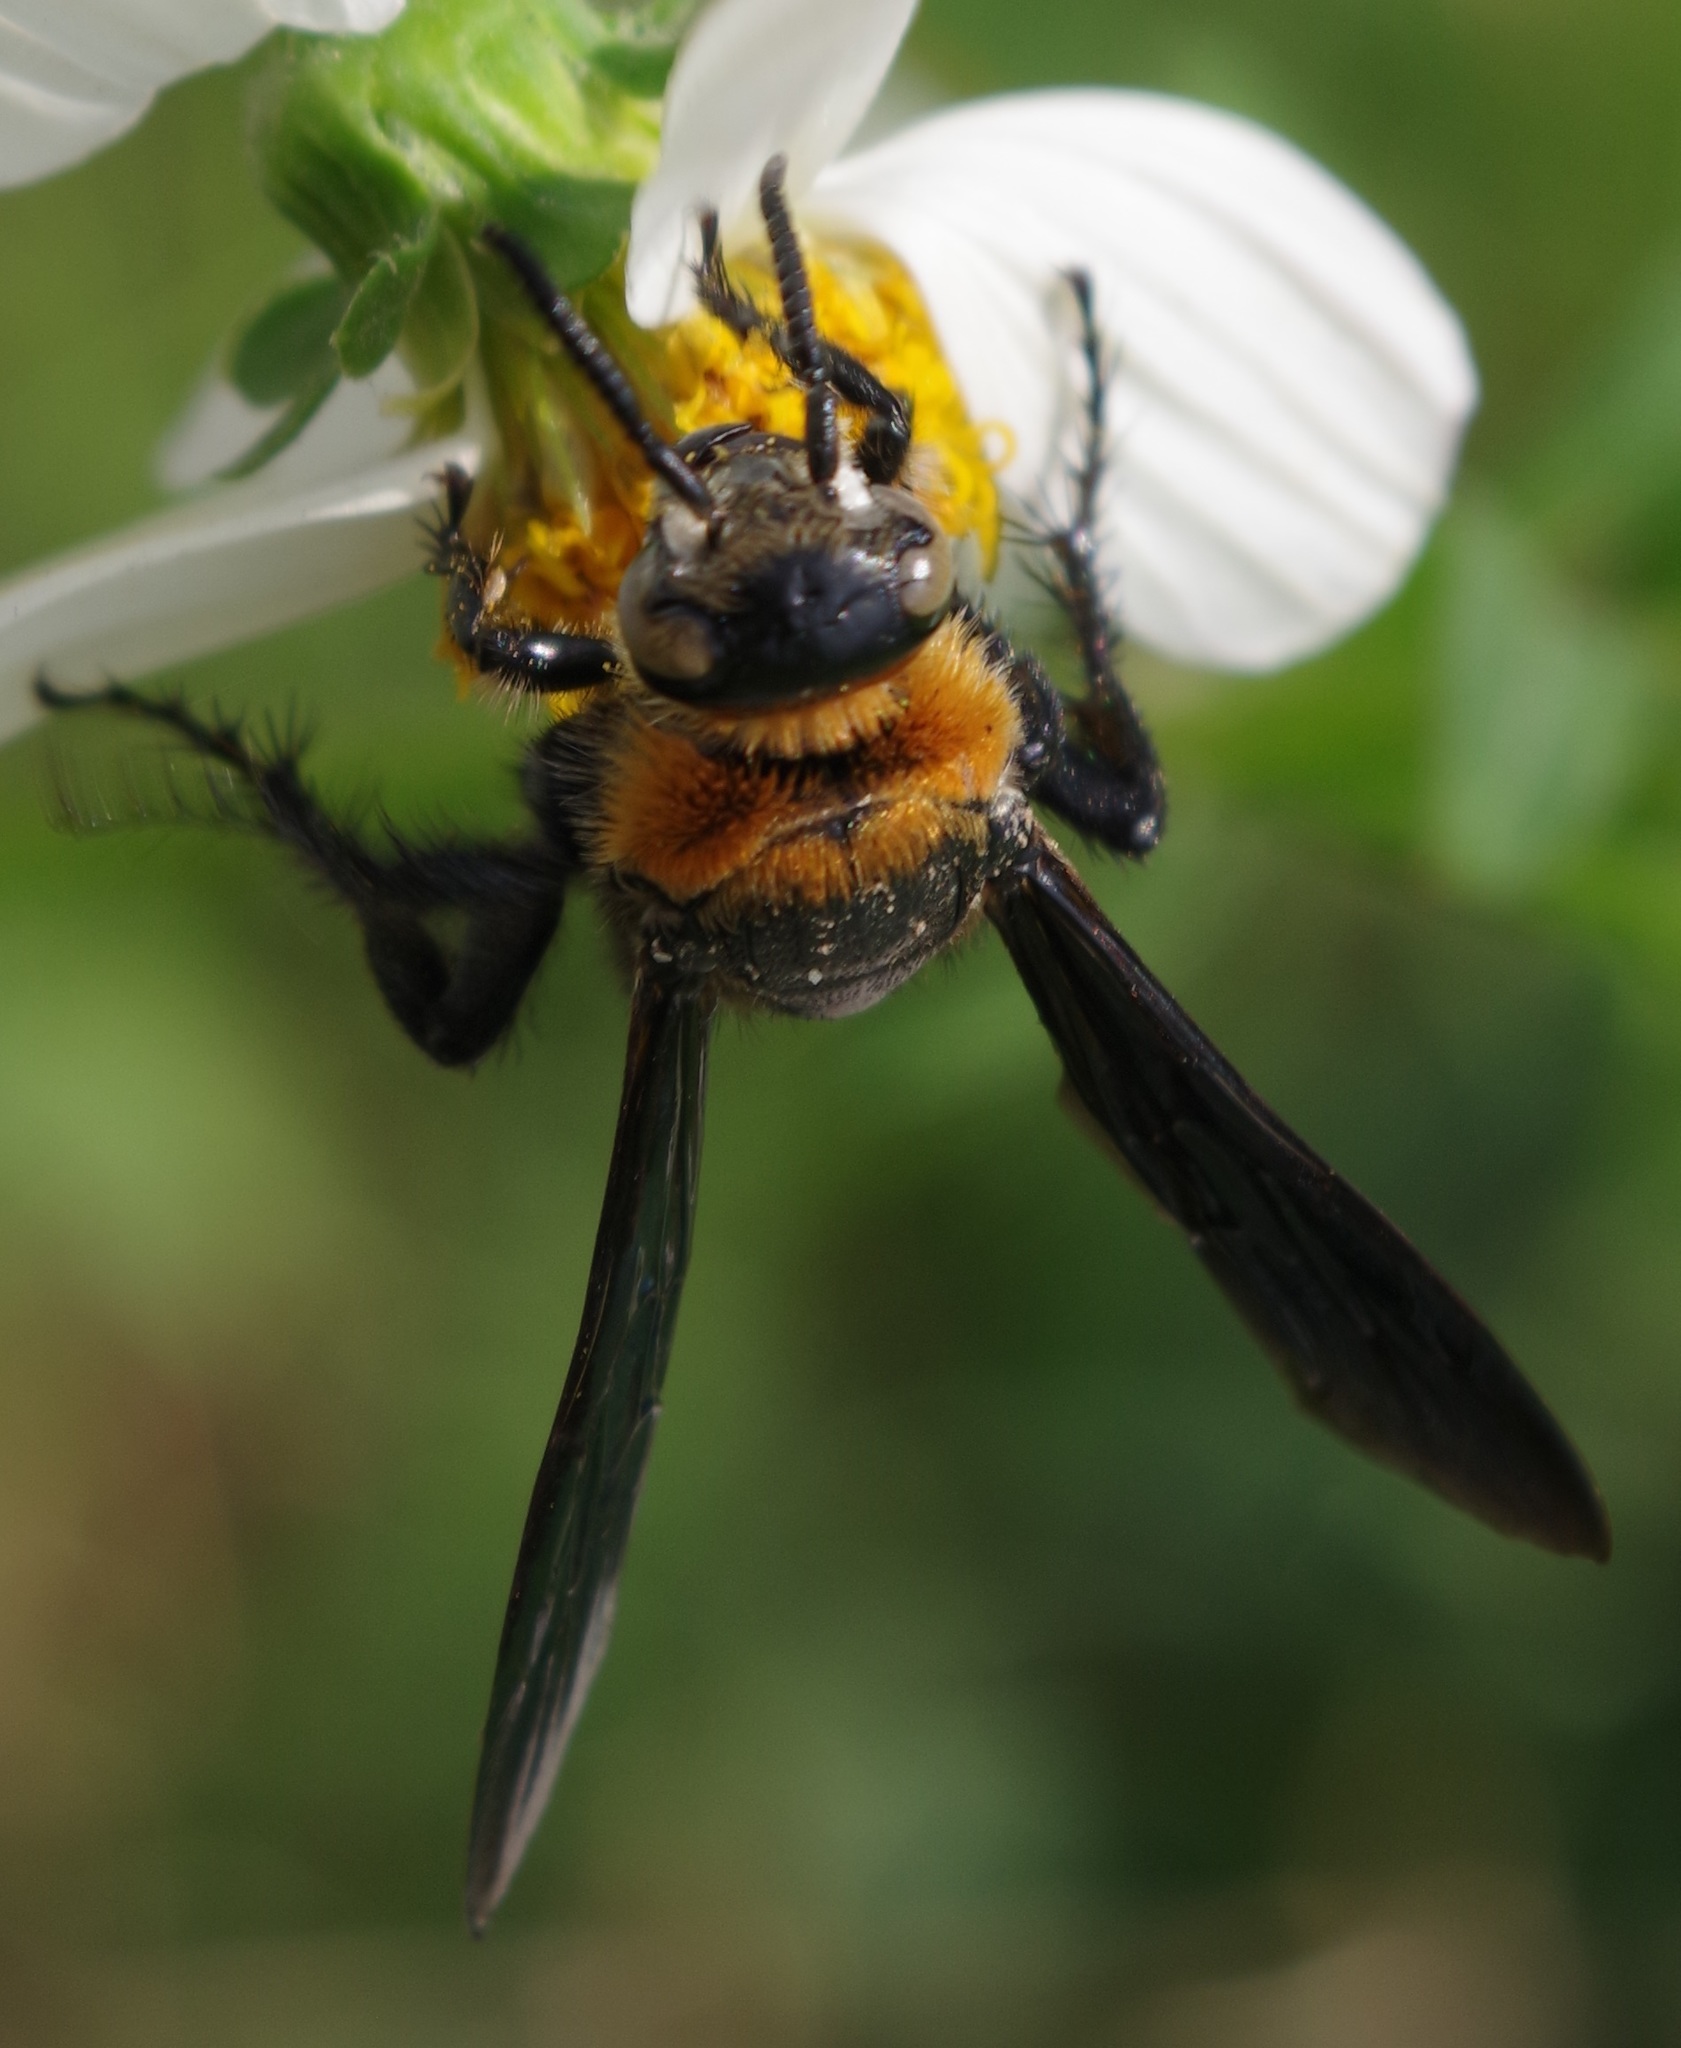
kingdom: Animalia
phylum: Arthropoda
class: Insecta
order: Hymenoptera
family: Scoliidae
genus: Campsomeriella
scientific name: Campsomeriella collaris
